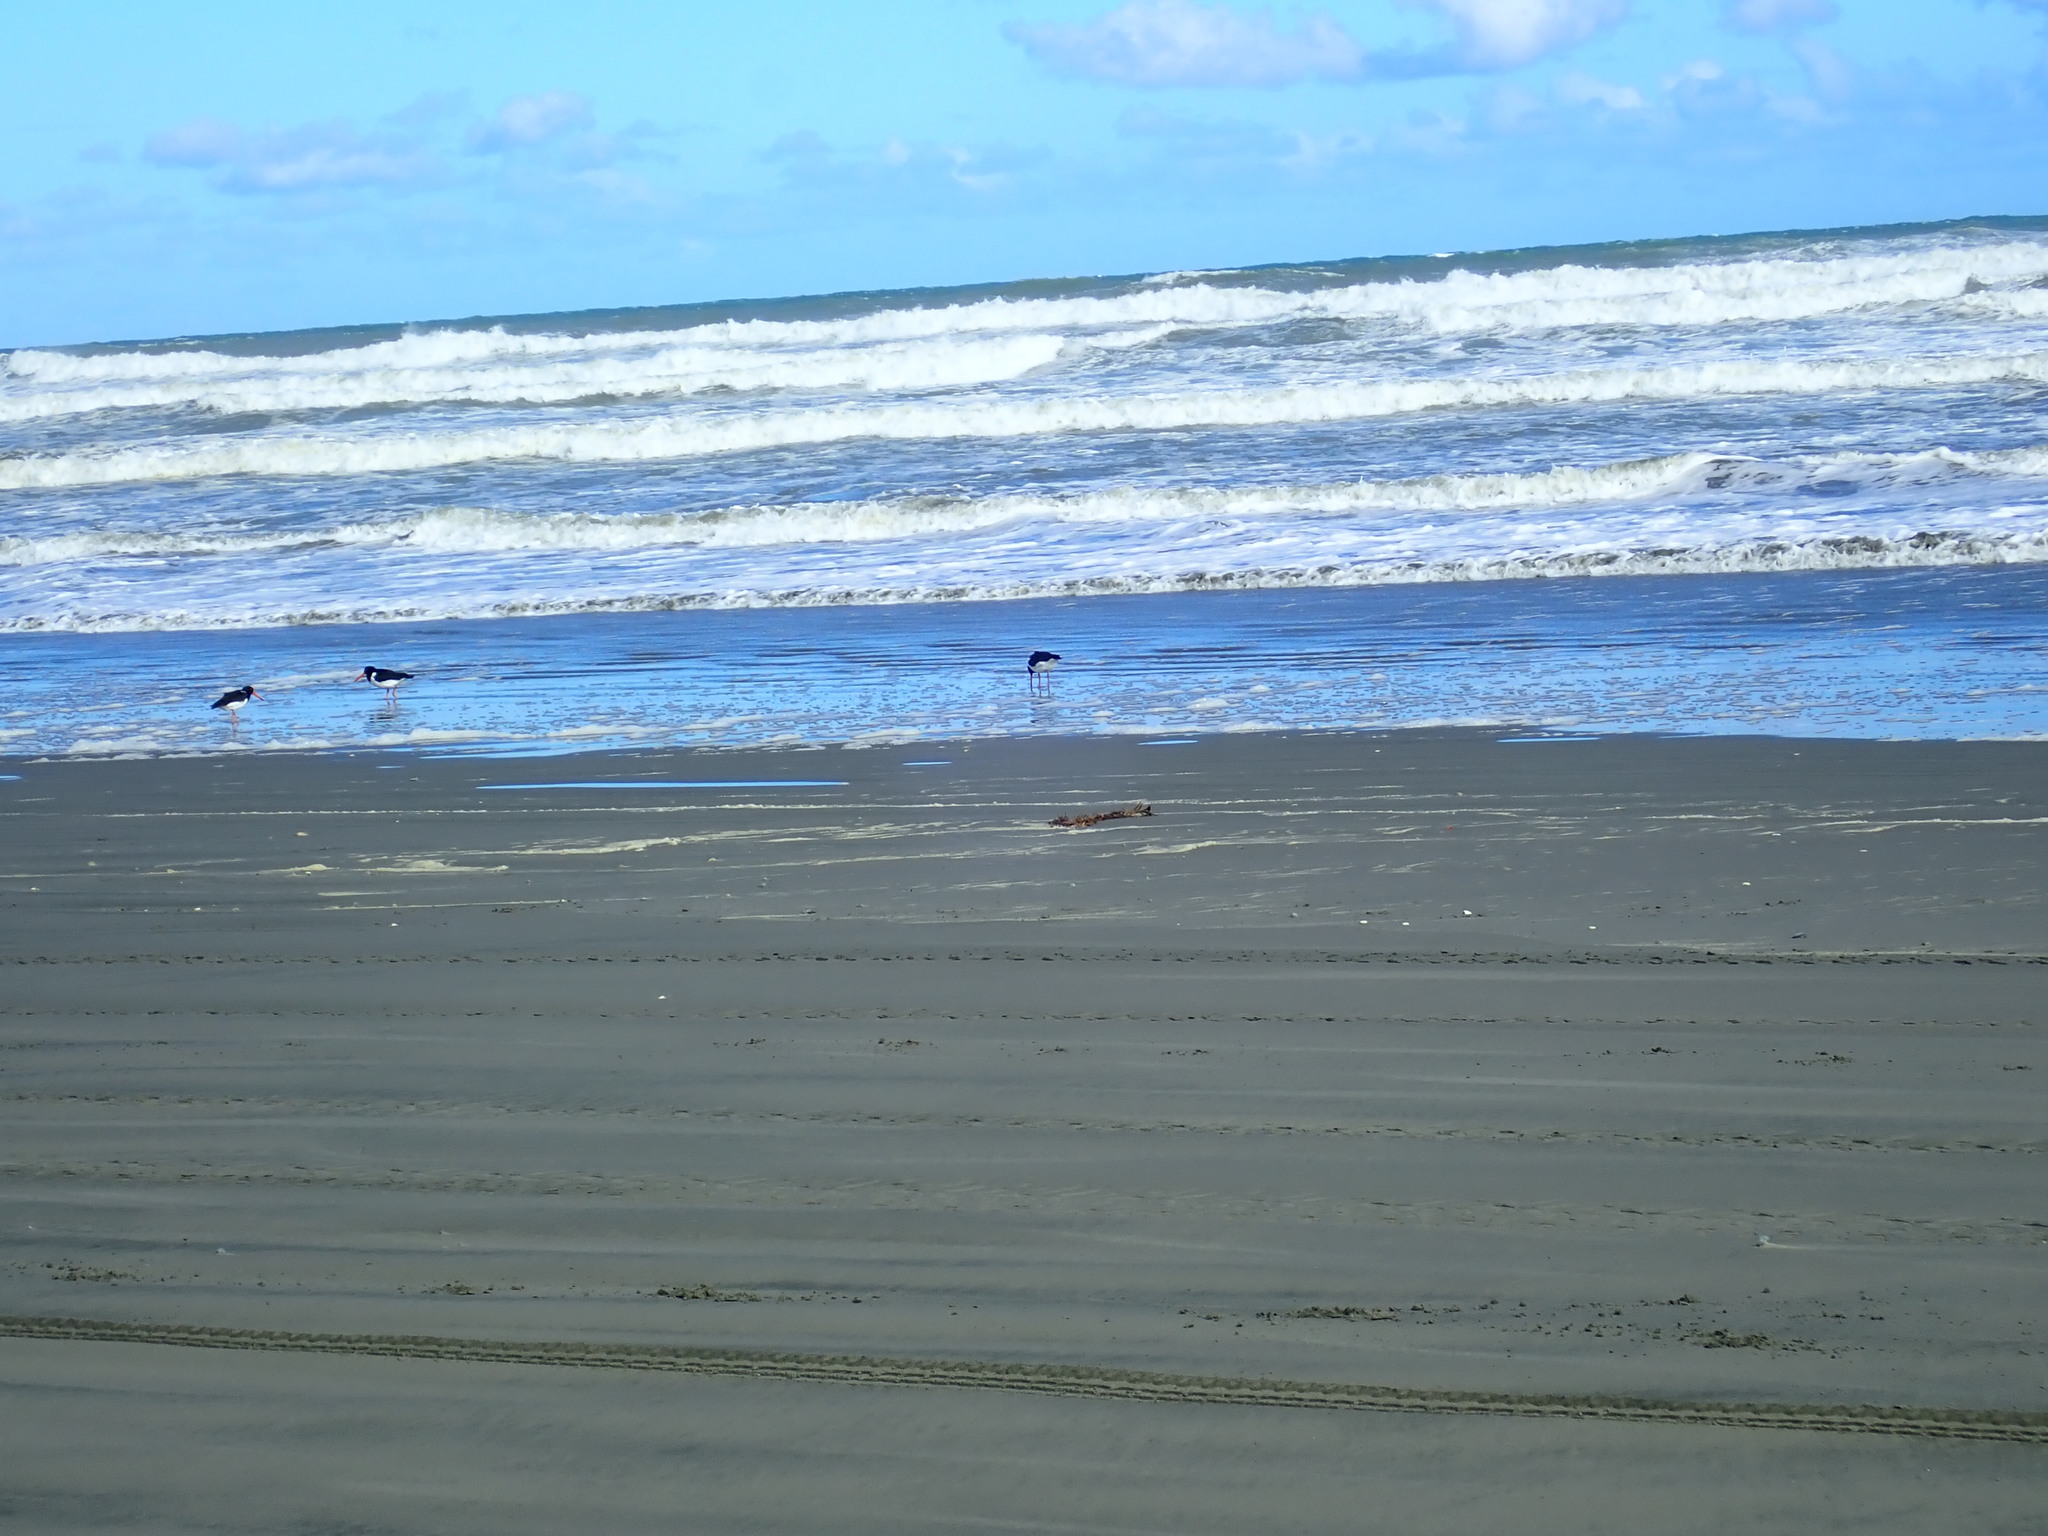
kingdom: Animalia
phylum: Chordata
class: Aves
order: Charadriiformes
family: Haematopodidae
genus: Haematopus
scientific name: Haematopus finschi
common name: South island oystercatcher
